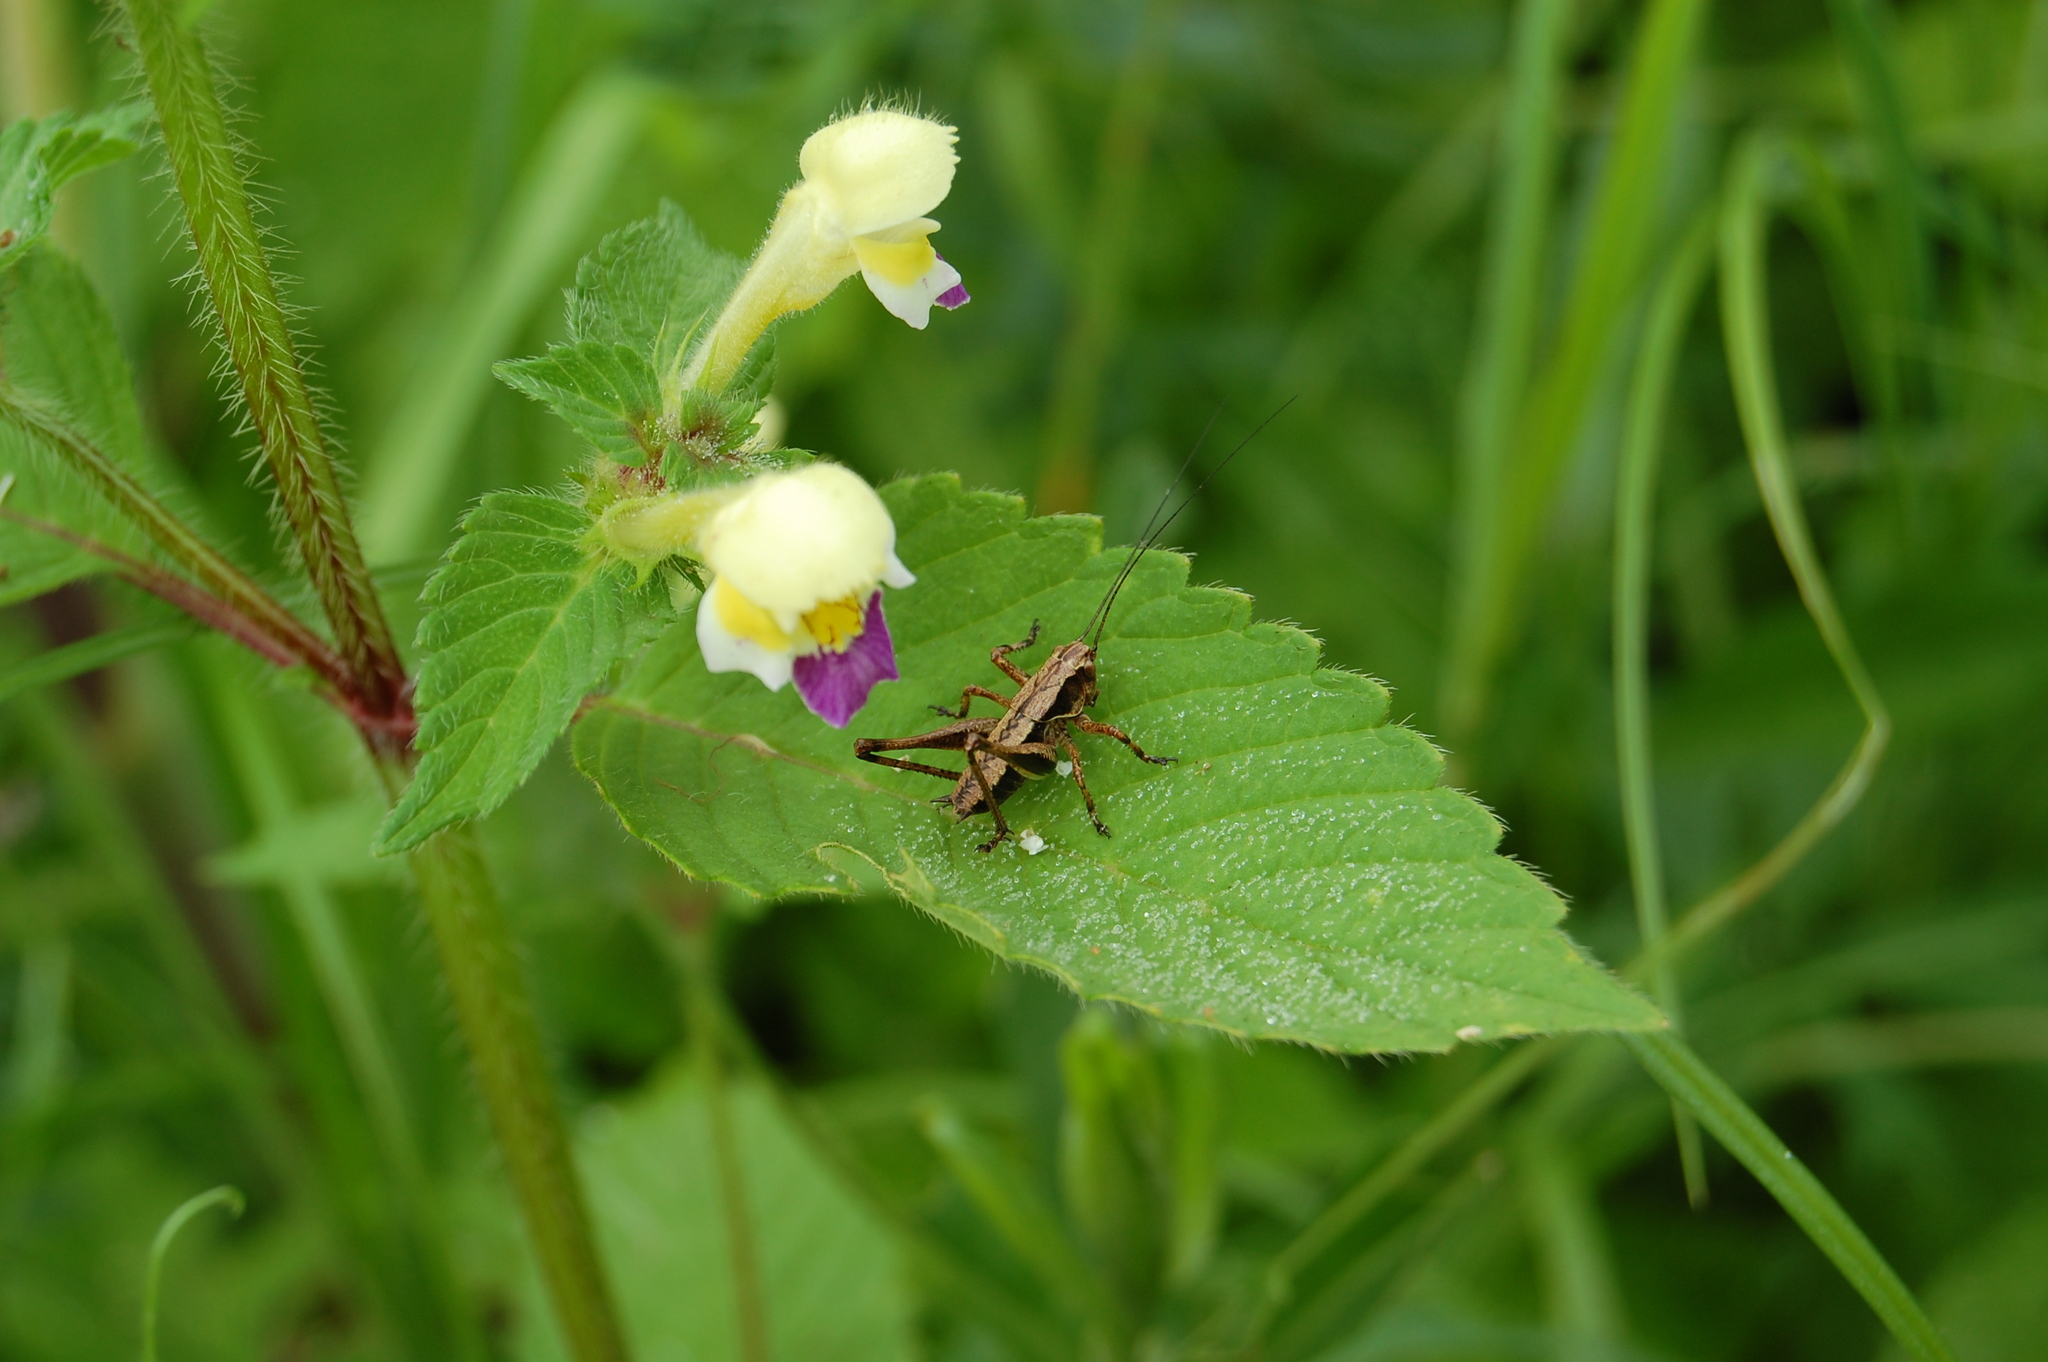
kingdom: Plantae
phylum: Tracheophyta
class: Magnoliopsida
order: Lamiales
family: Lamiaceae
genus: Galeopsis
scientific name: Galeopsis speciosa
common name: Large-flowered hemp-nettle
